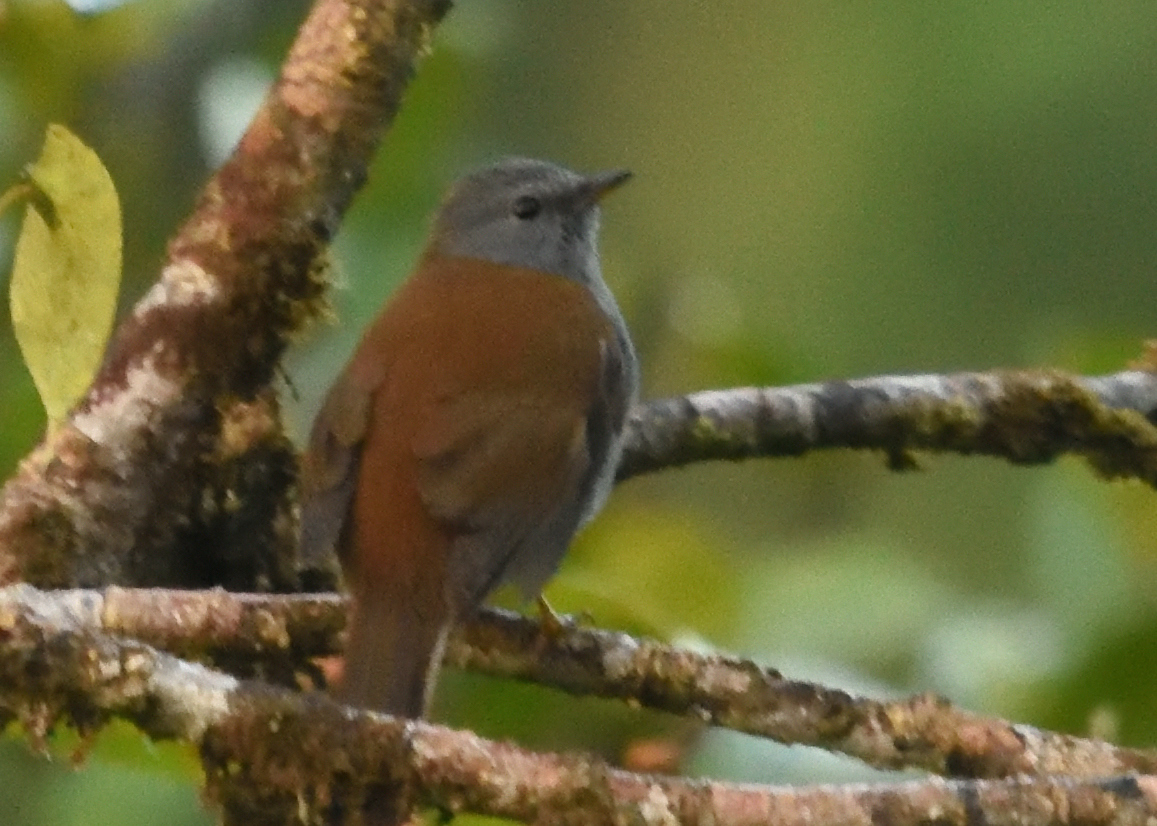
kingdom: Animalia
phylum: Chordata
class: Aves
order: Passeriformes
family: Turdidae
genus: Myadestes
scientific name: Myadestes ralloides
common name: Andean solitaire
